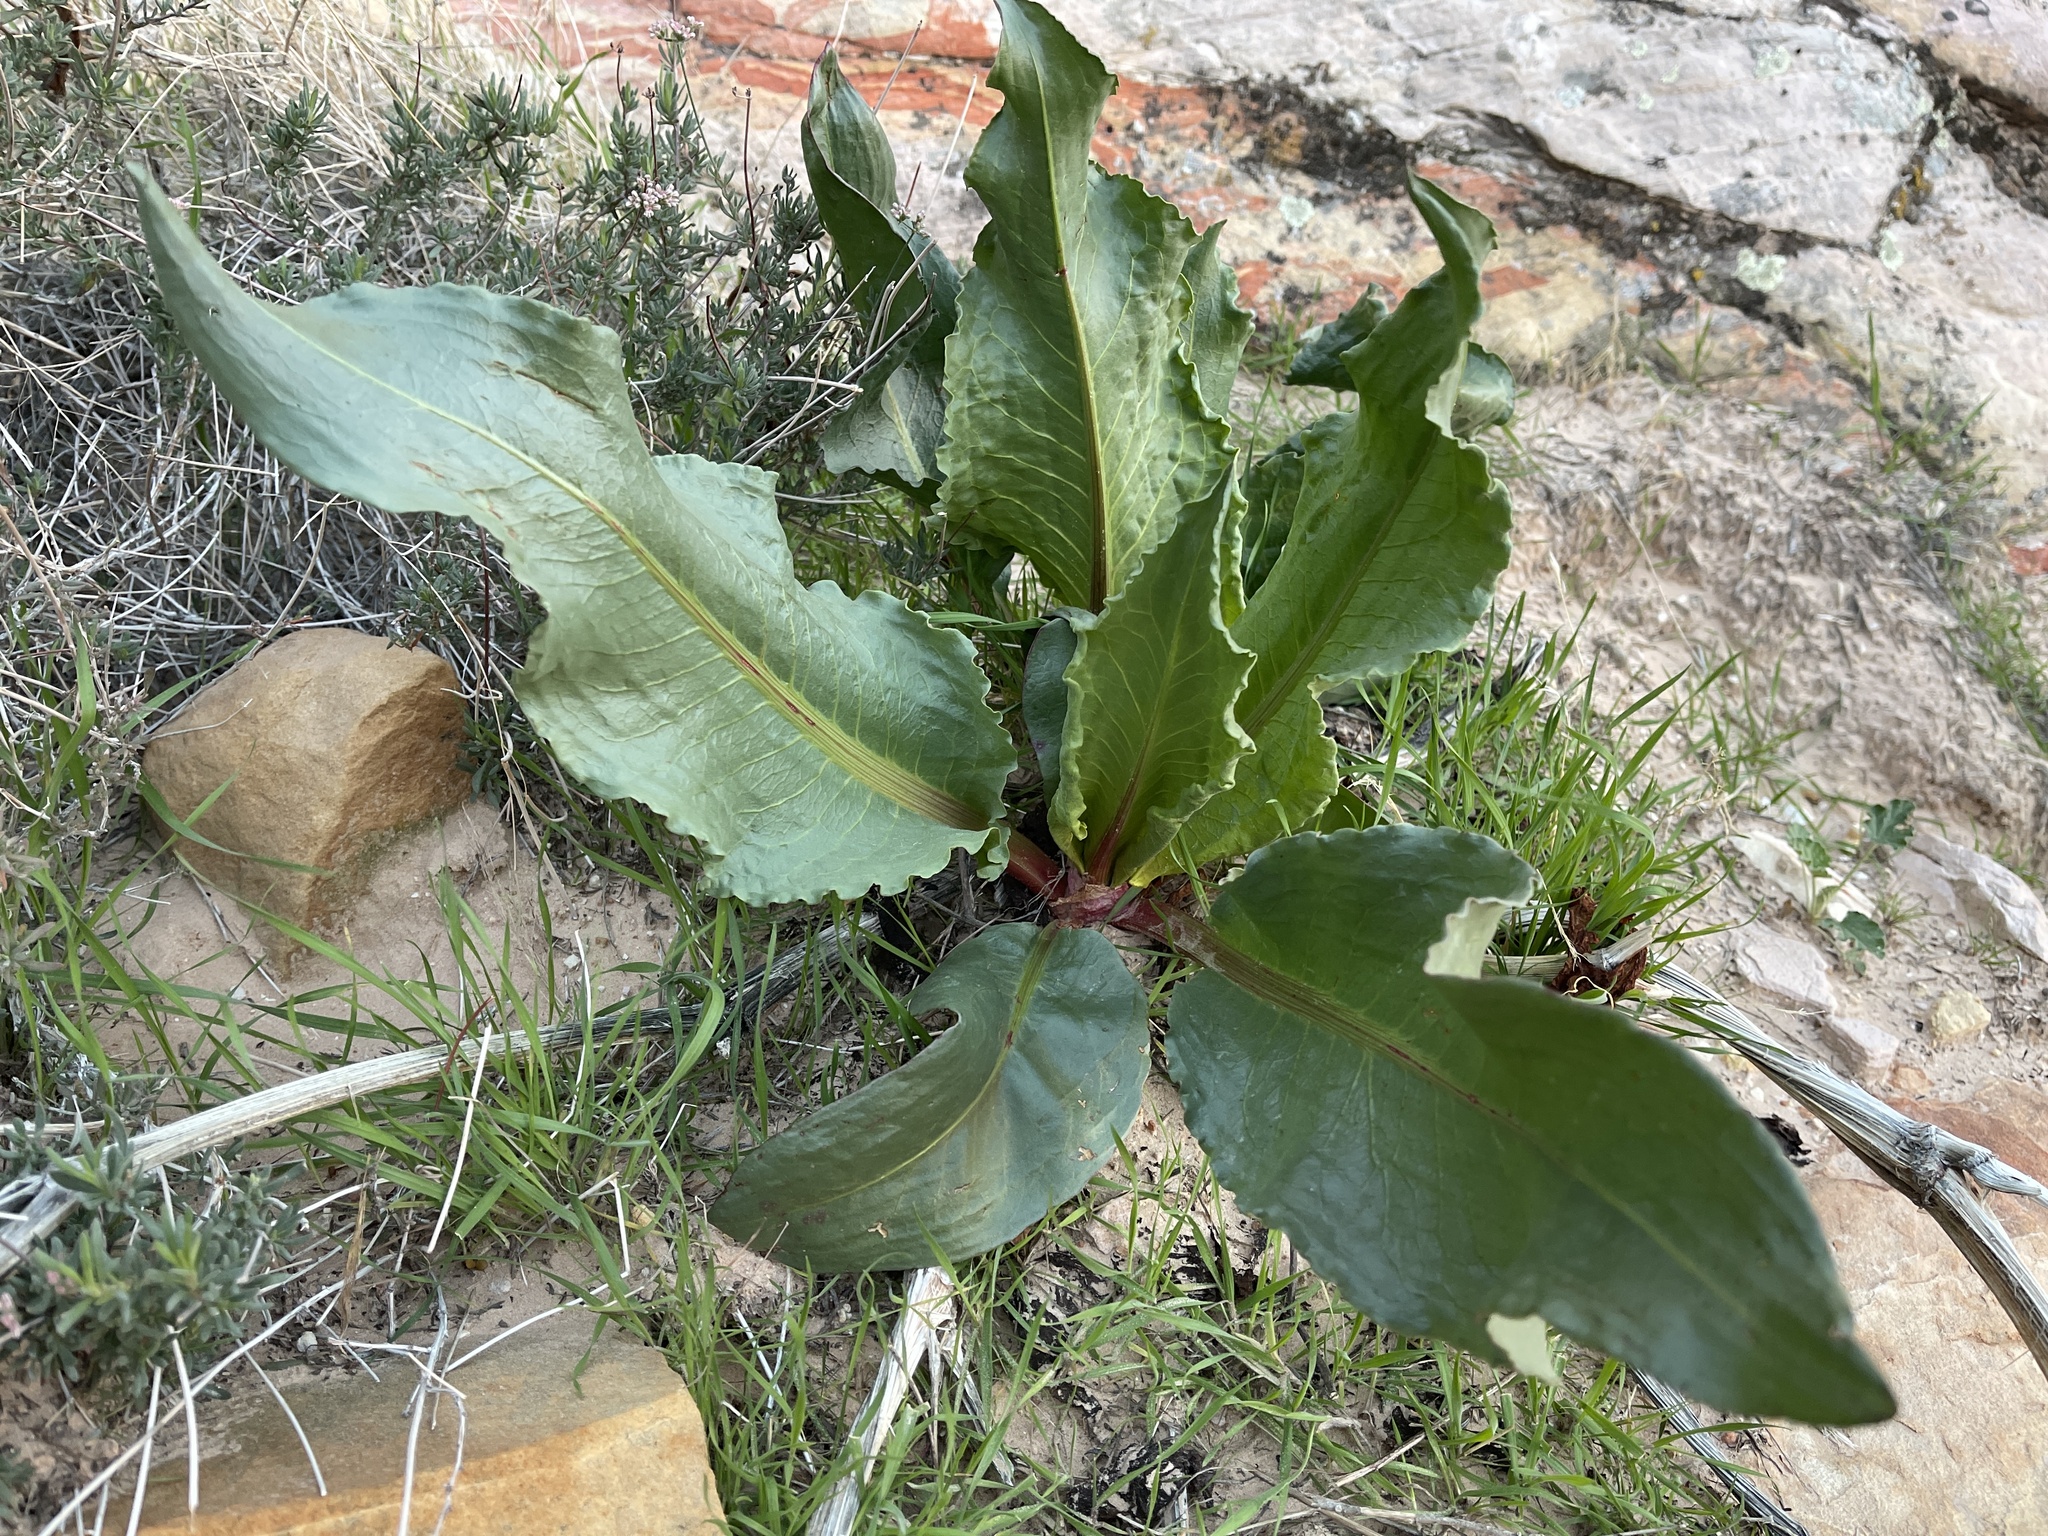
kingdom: Plantae
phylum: Tracheophyta
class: Magnoliopsida
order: Caryophyllales
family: Polygonaceae
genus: Rumex
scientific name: Rumex hymenosepalus
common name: Ganagra
